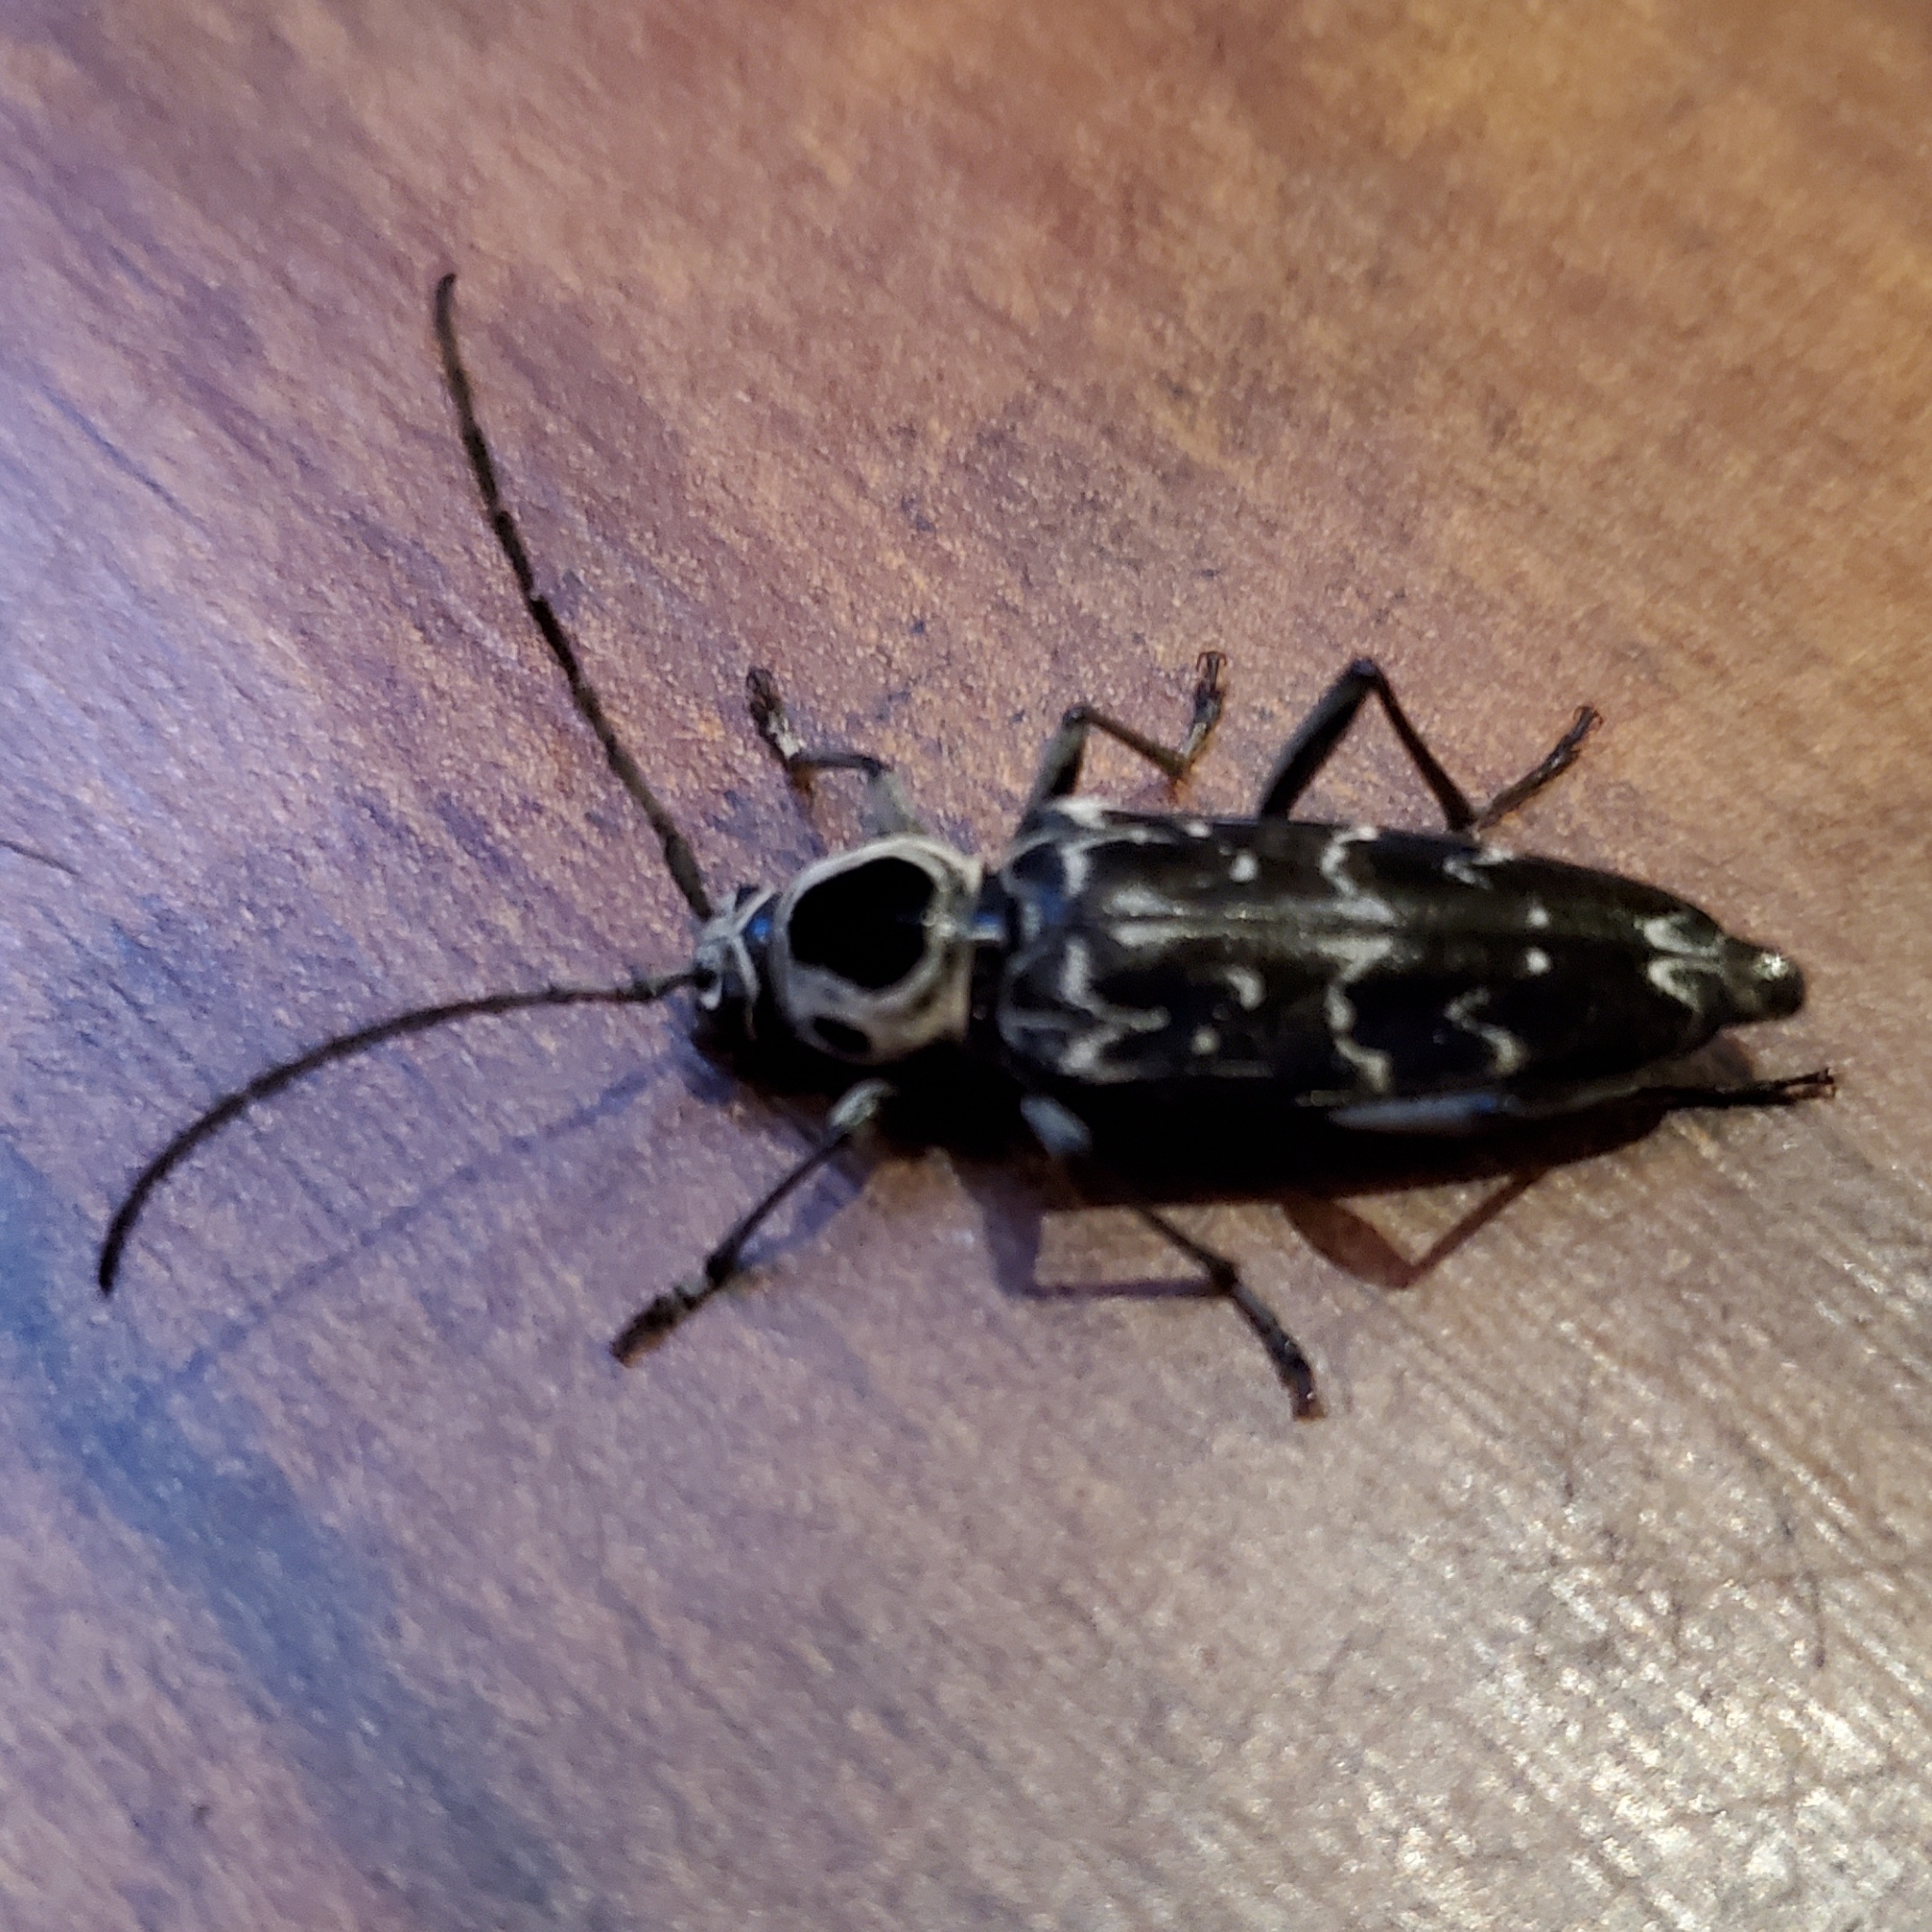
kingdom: Animalia
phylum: Arthropoda
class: Insecta
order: Coleoptera
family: Cerambycidae
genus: Sarosesthes
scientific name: Sarosesthes fulminans
